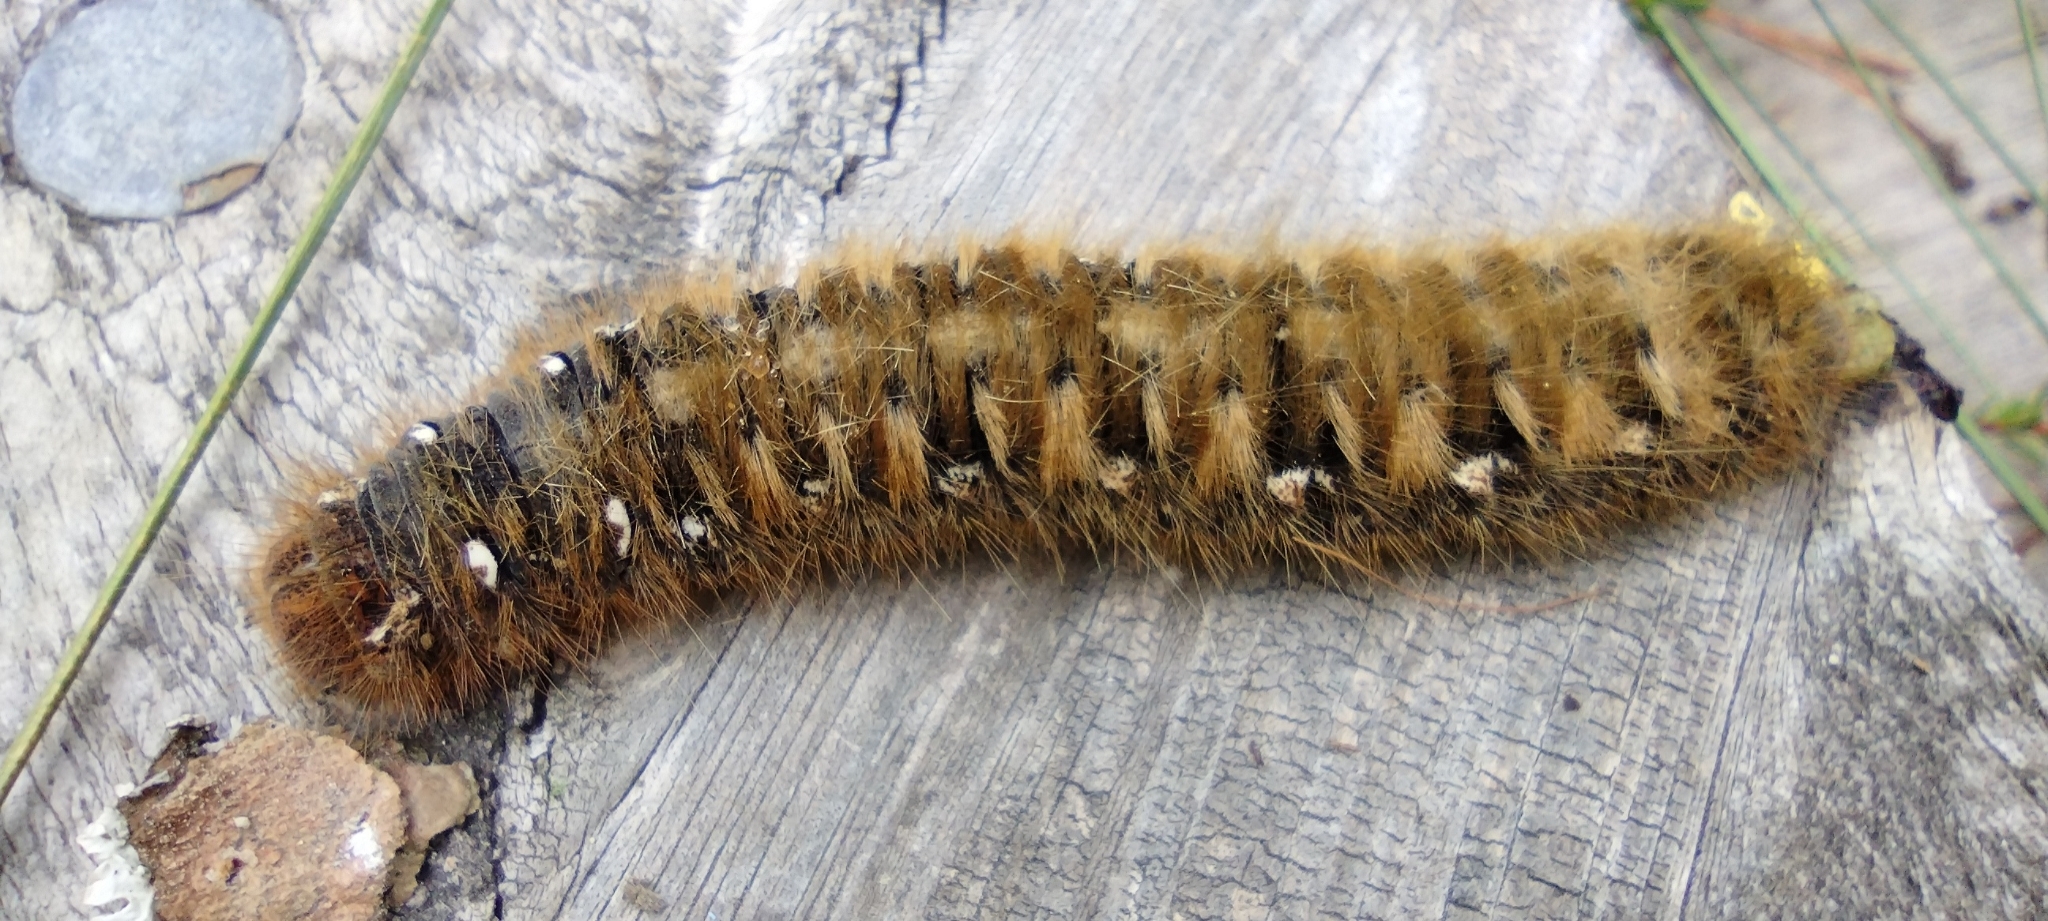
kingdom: Animalia
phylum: Arthropoda
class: Insecta
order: Lepidoptera
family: Lasiocampidae
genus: Lasiocampa
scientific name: Lasiocampa quercus
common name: Oak eggar
